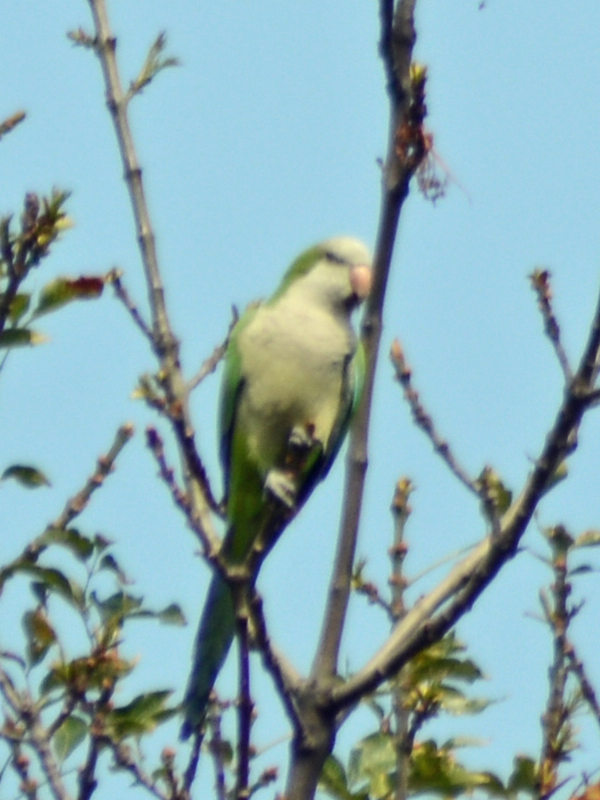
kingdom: Animalia
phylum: Chordata
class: Aves
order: Psittaciformes
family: Psittacidae
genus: Myiopsitta
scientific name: Myiopsitta monachus
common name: Monk parakeet
